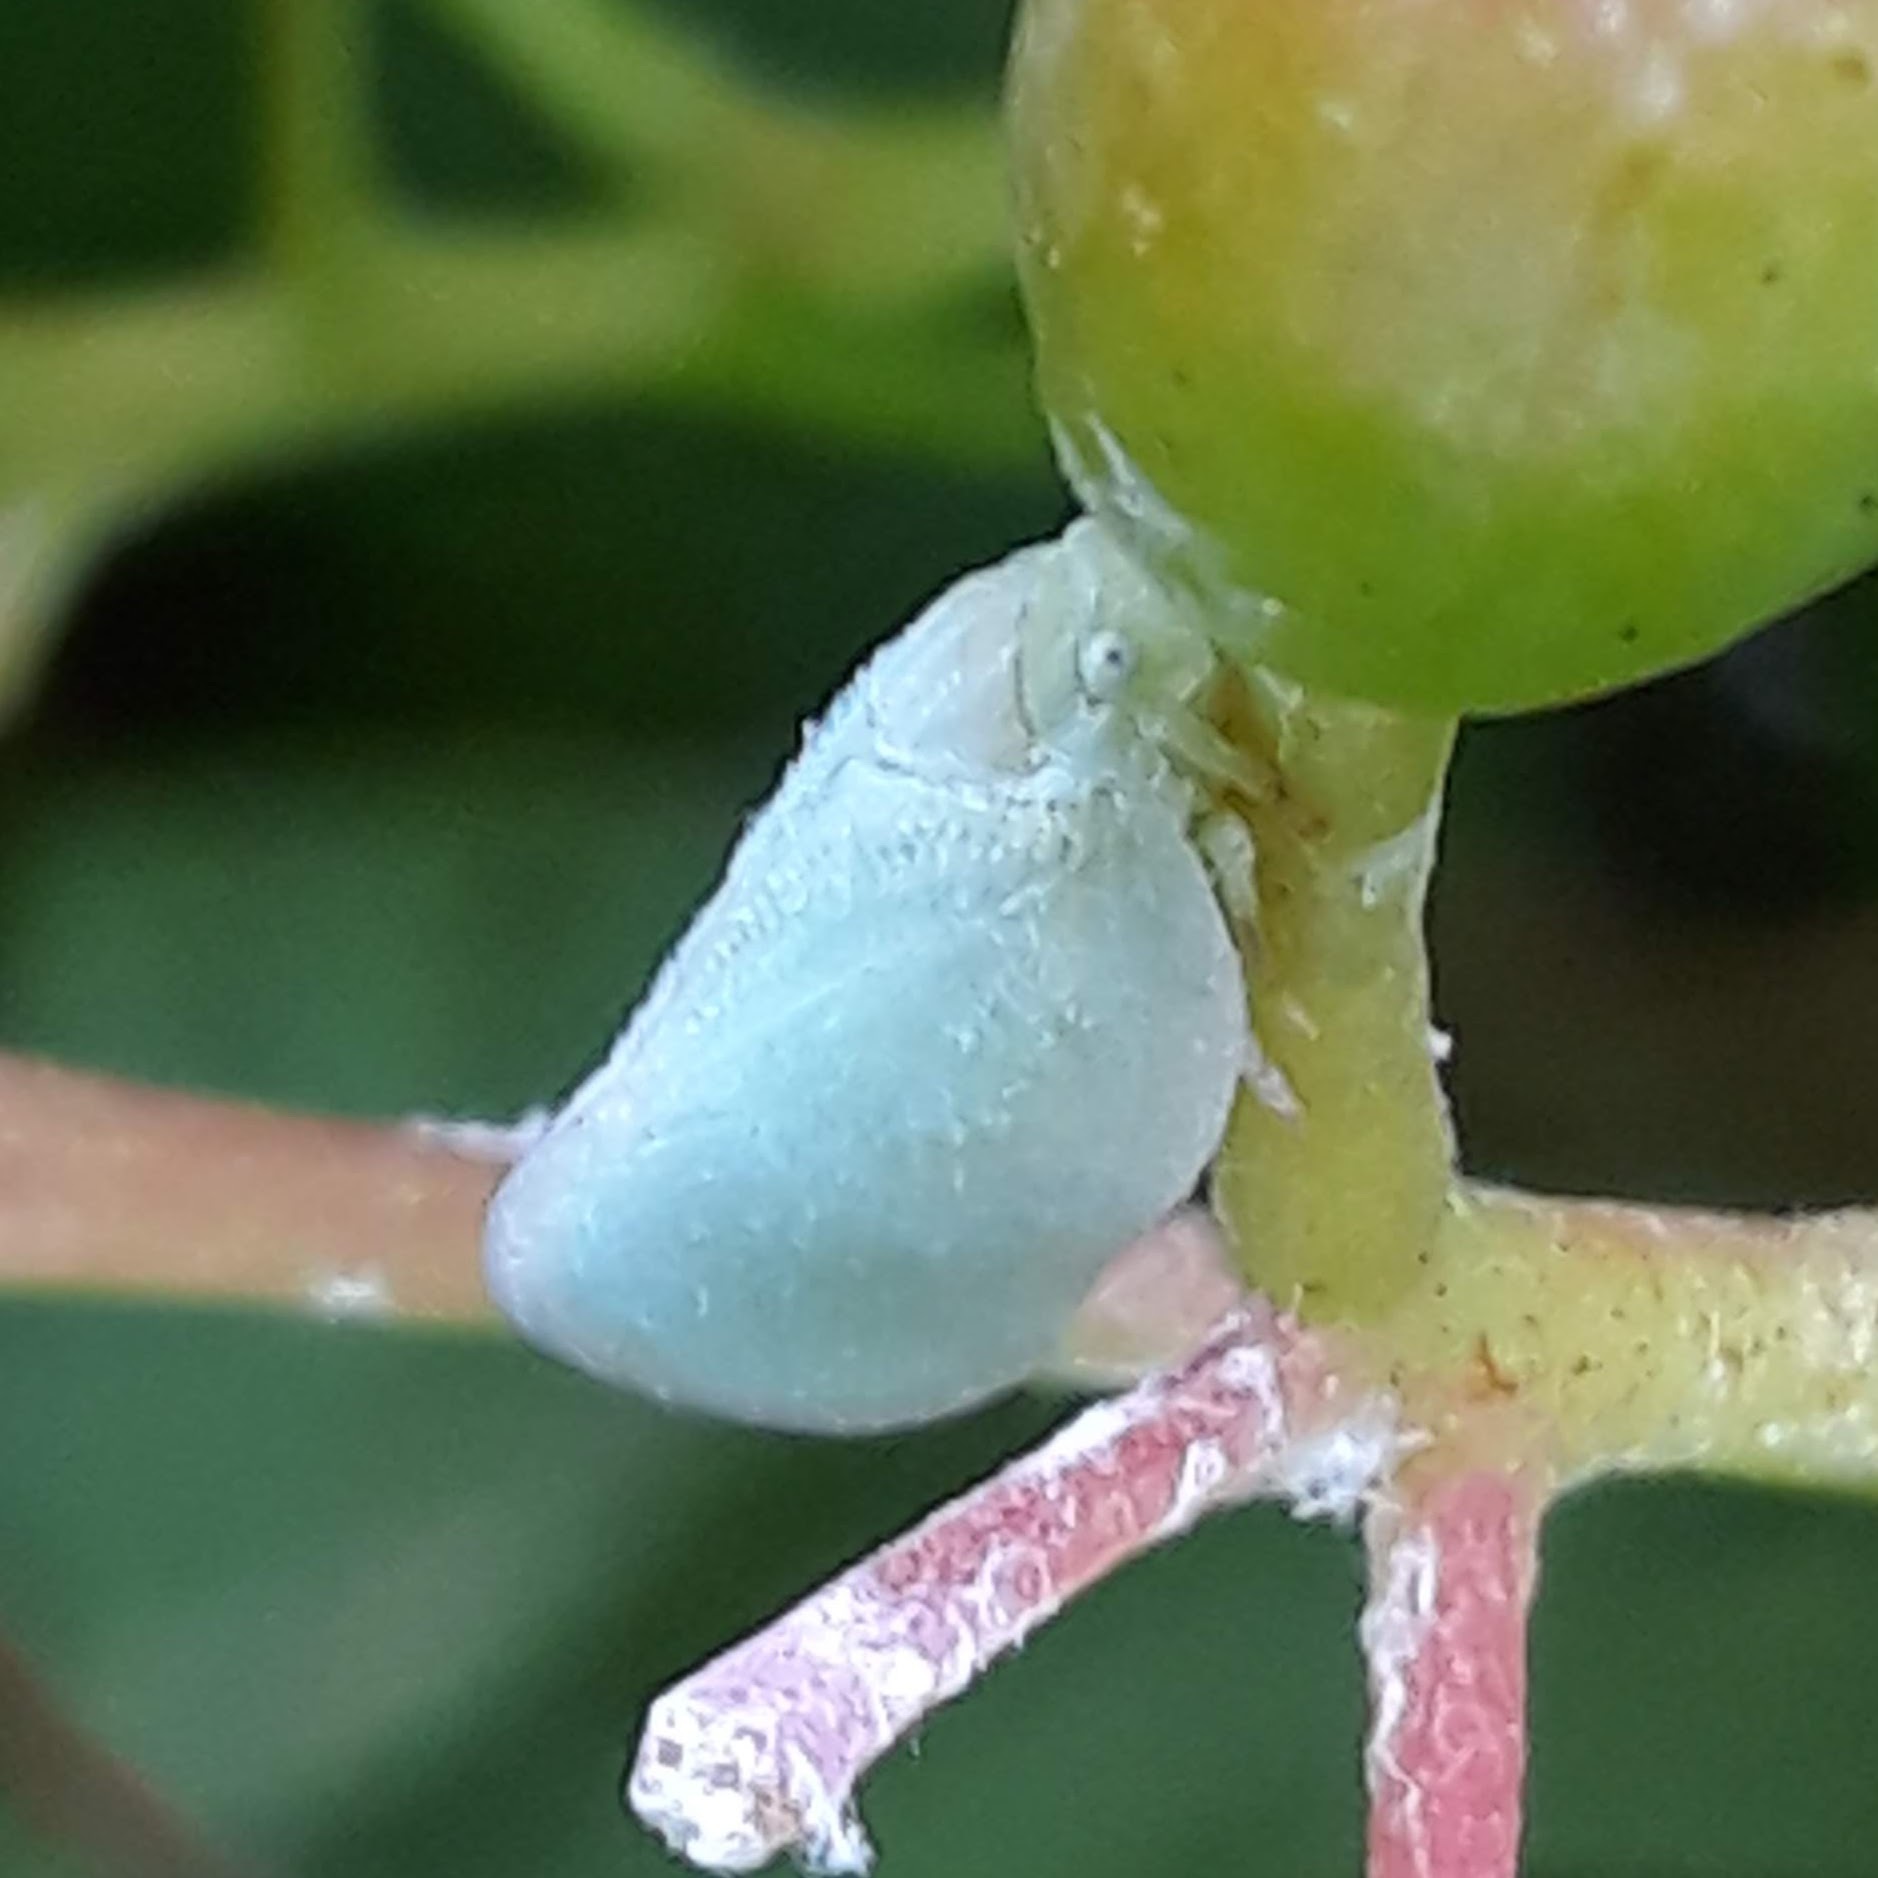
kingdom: Animalia
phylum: Arthropoda
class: Insecta
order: Hemiptera
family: Flatidae
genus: Ormenoides
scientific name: Ormenoides venusta
